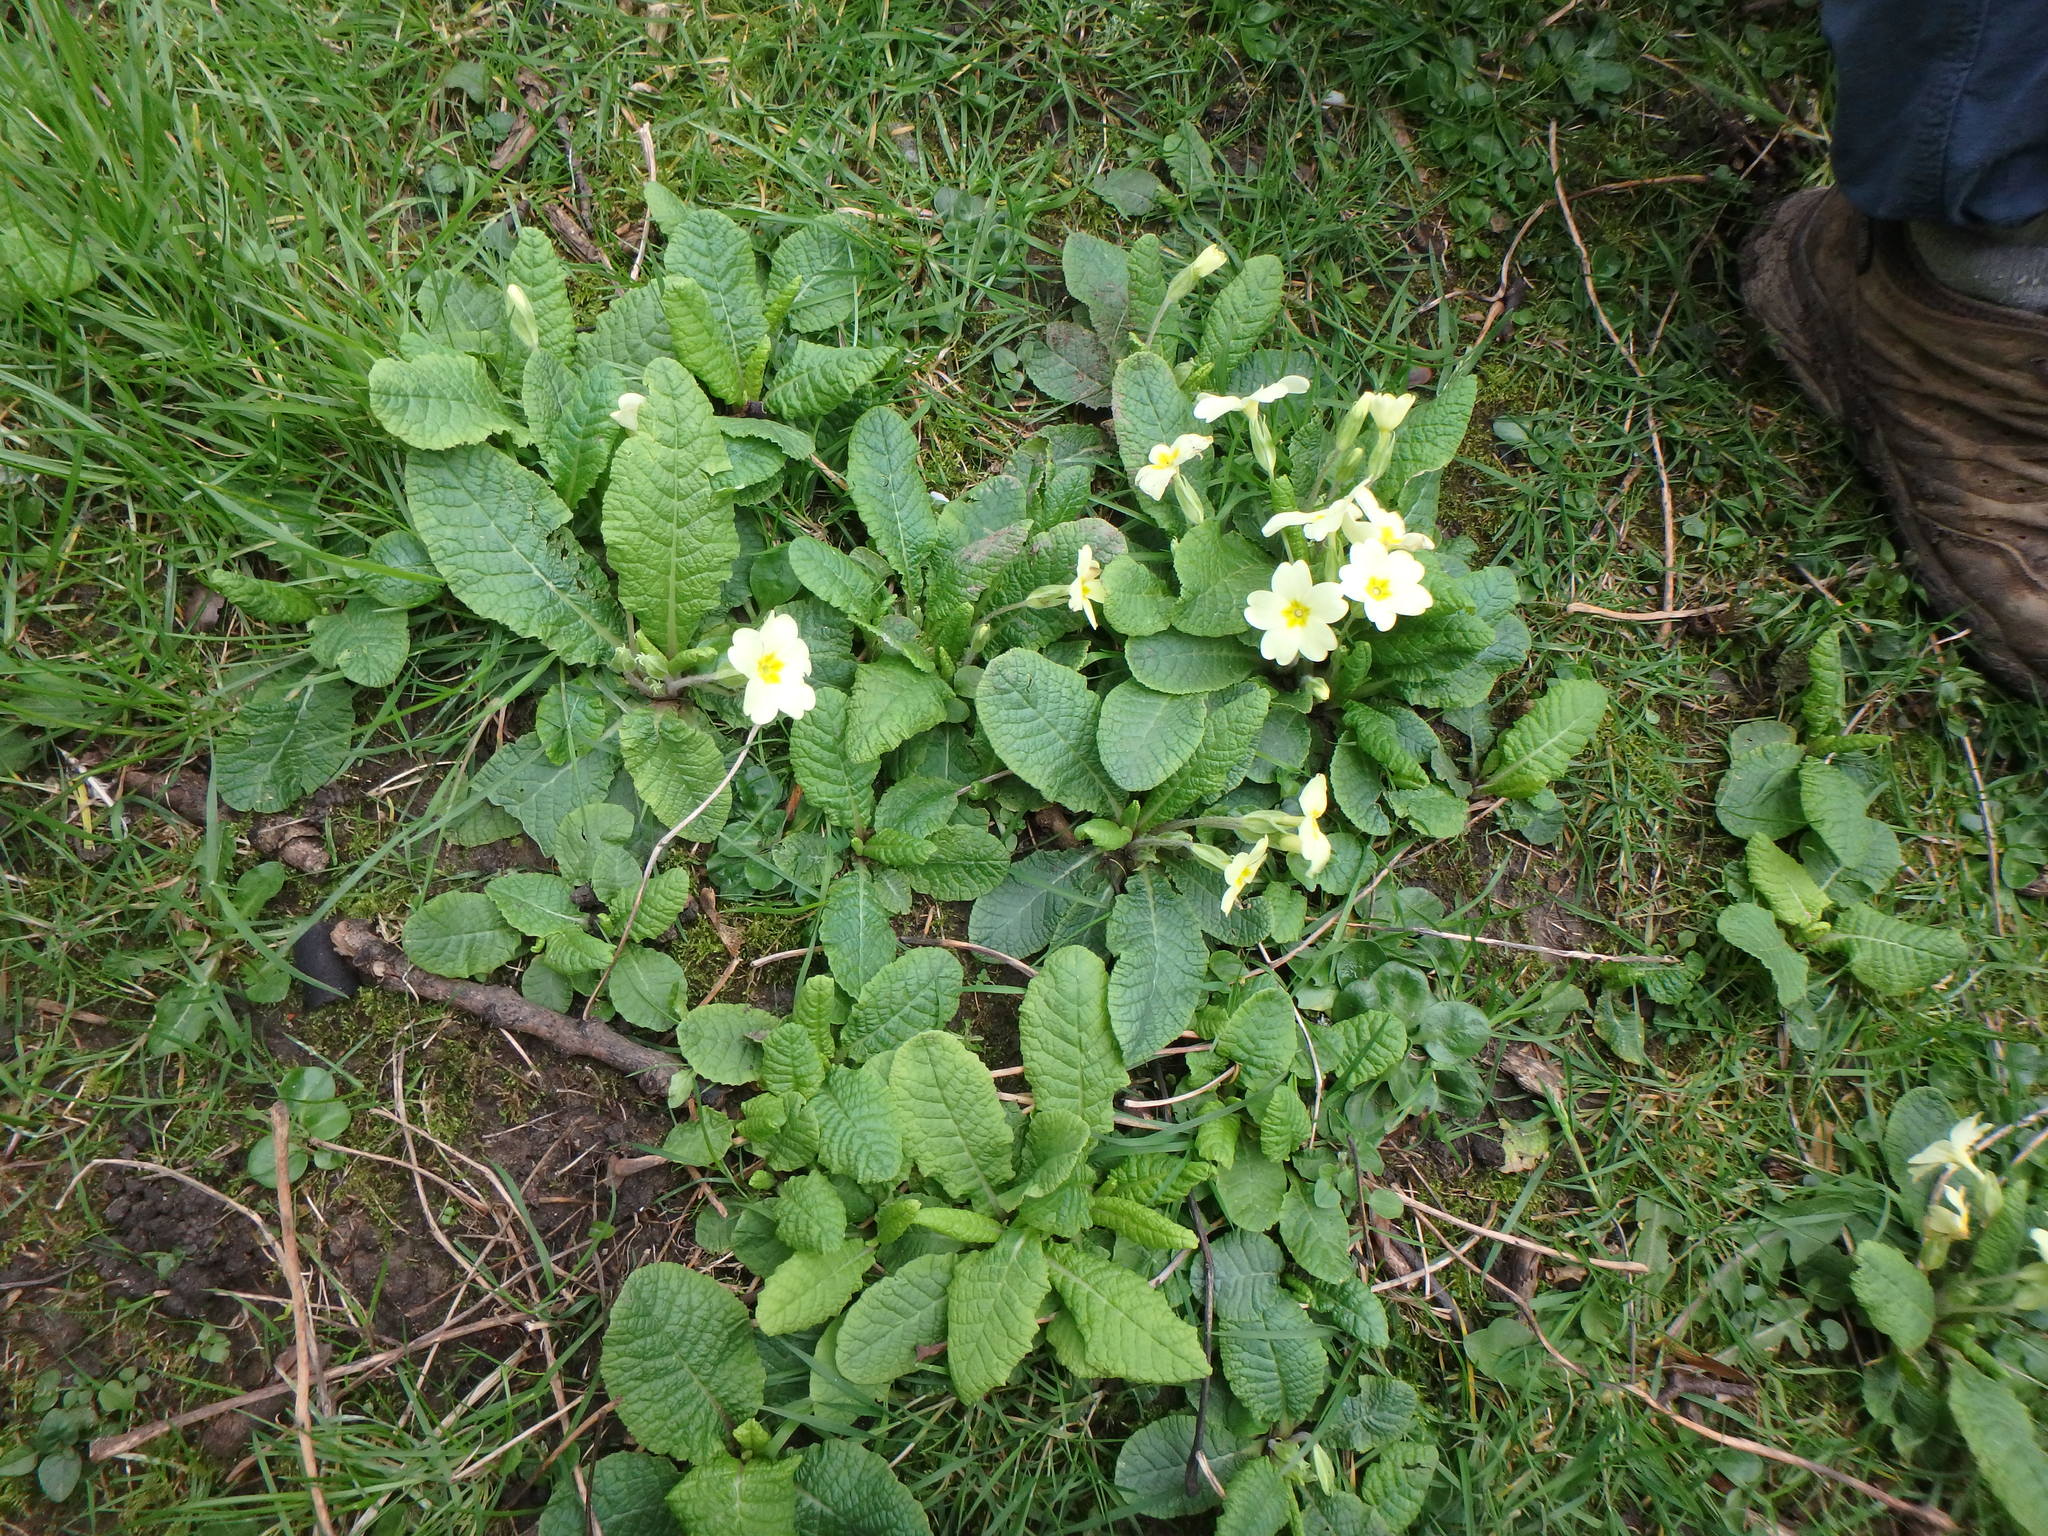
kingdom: Plantae
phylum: Tracheophyta
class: Magnoliopsida
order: Ericales
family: Primulaceae
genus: Primula
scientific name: Primula vulgaris
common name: Primrose
